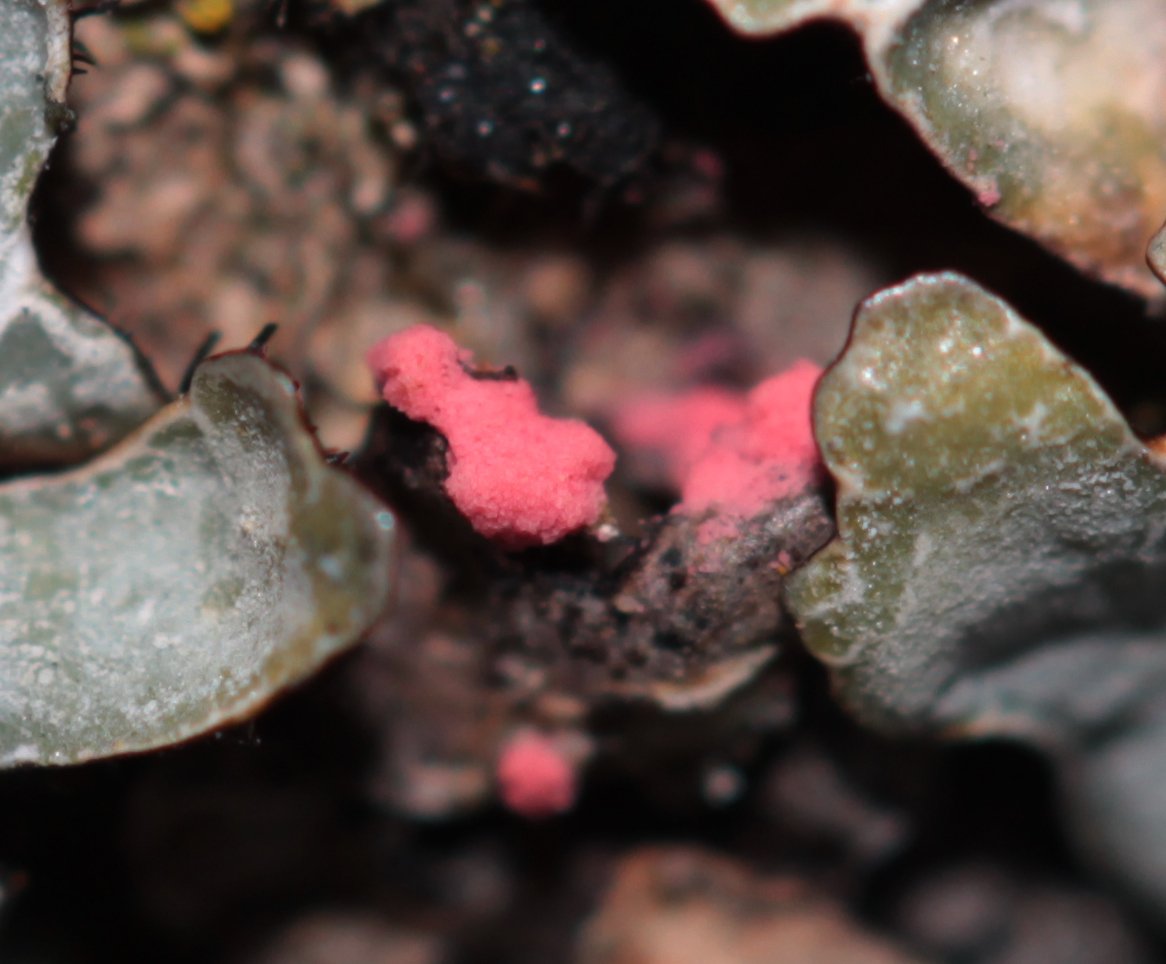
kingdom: Fungi
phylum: Ascomycota
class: Sordariomycetes
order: Hypocreales
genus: Illosporiopsis
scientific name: Illosporiopsis christiansenii
